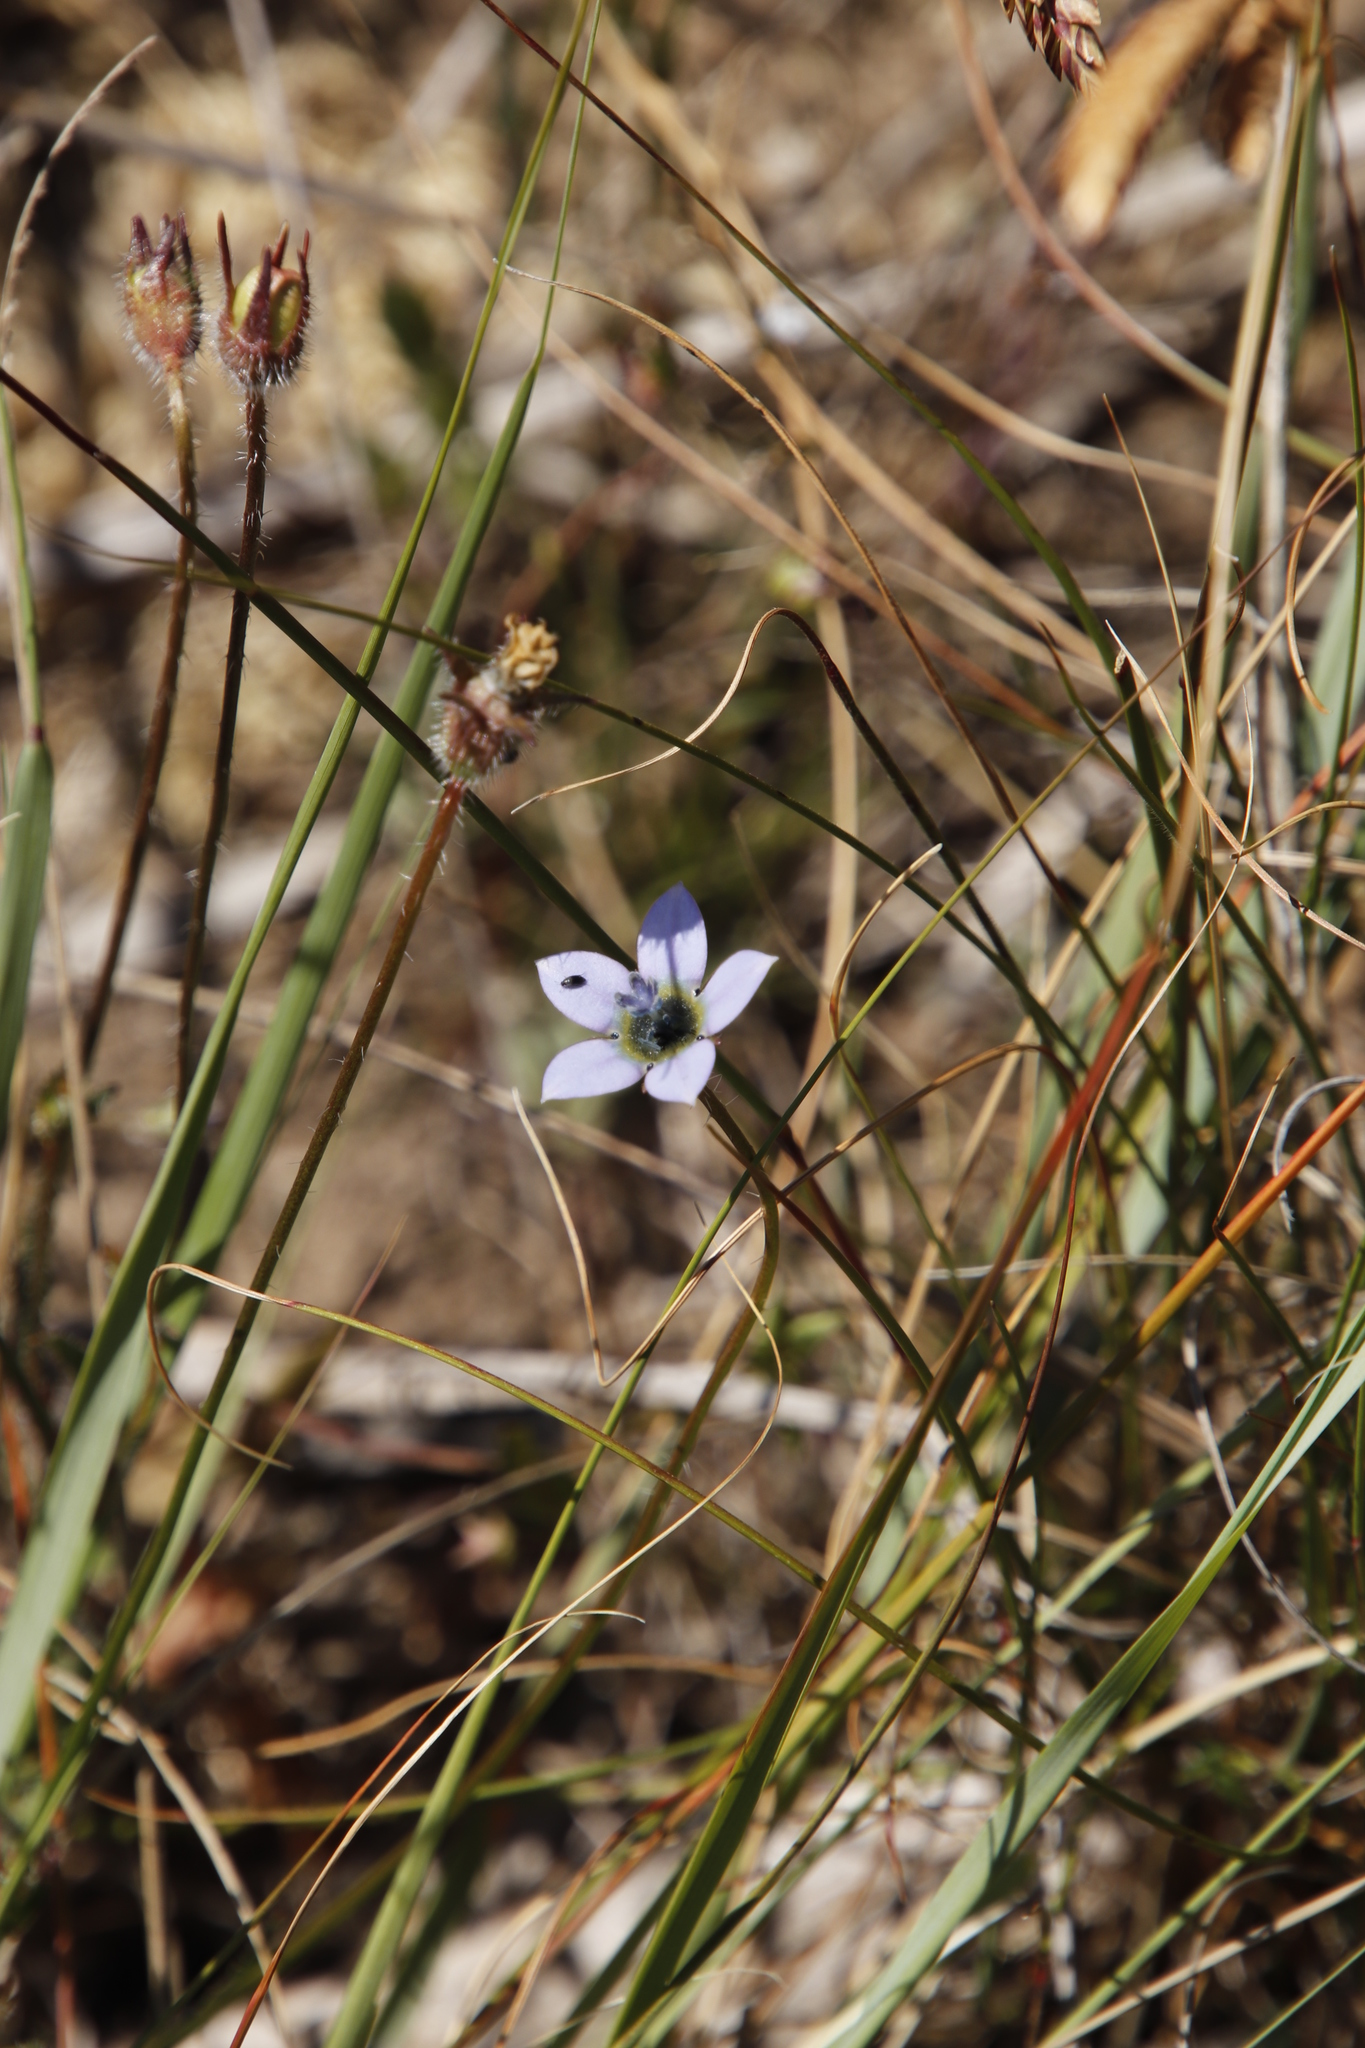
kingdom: Plantae
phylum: Tracheophyta
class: Magnoliopsida
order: Asterales
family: Campanulaceae
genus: Wahlenbergia
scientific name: Wahlenbergia capensis
